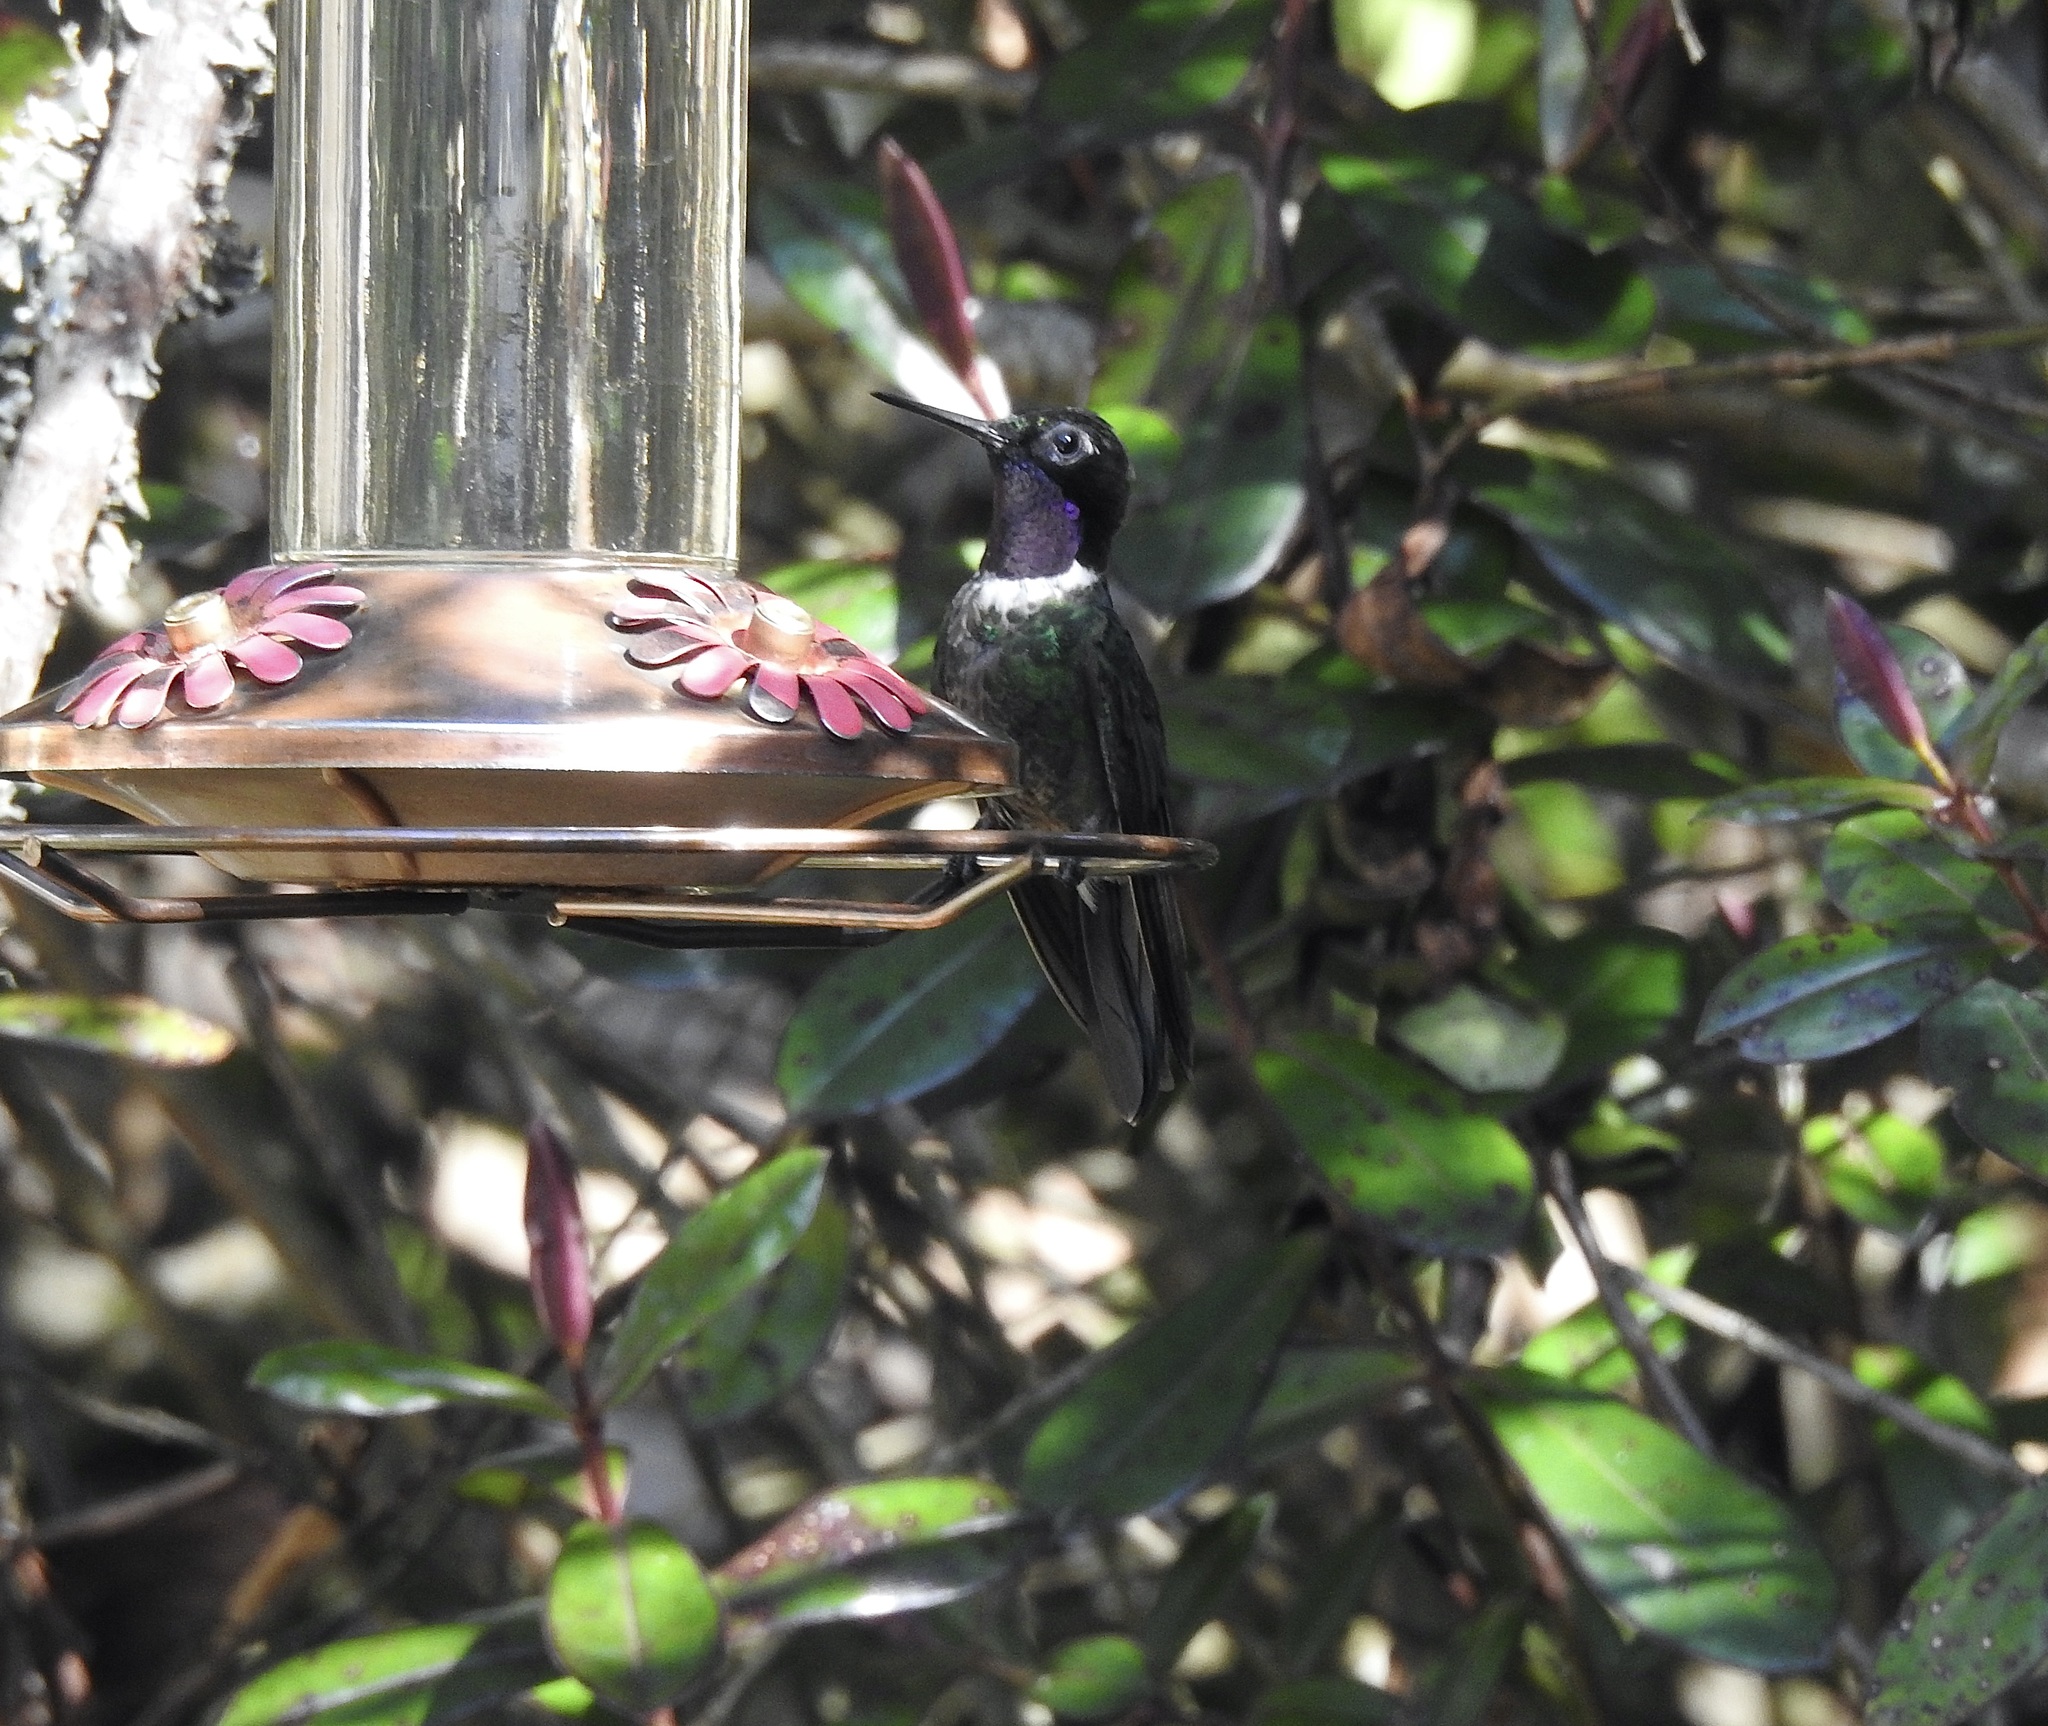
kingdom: Animalia
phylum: Chordata
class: Aves
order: Apodiformes
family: Trochilidae
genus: Heliangelus
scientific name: Heliangelus clarisse
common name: Longuemare's sunangel
